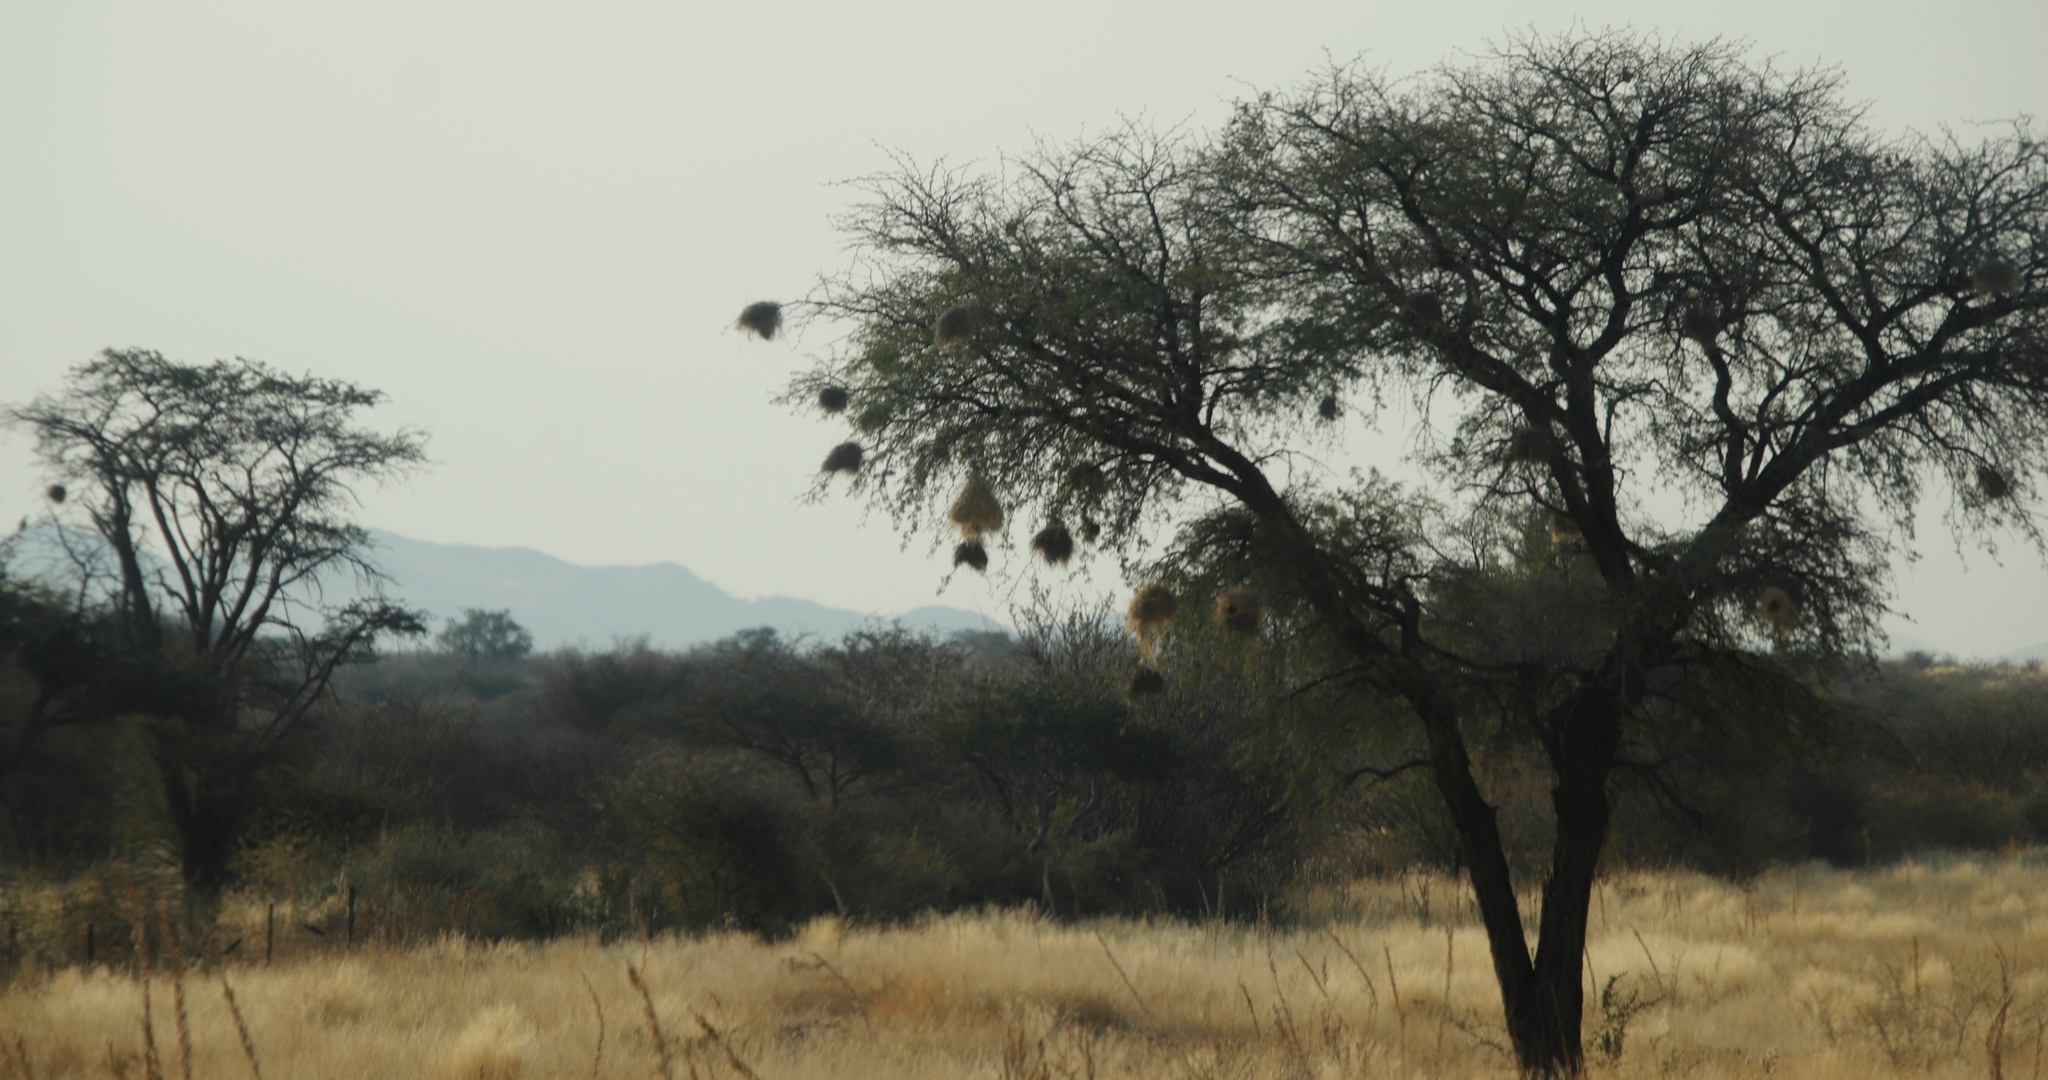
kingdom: Animalia
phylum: Chordata
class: Aves
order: Passeriformes
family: Passeridae
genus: Plocepasser
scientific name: Plocepasser mahali
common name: White-browed sparrow-weaver
